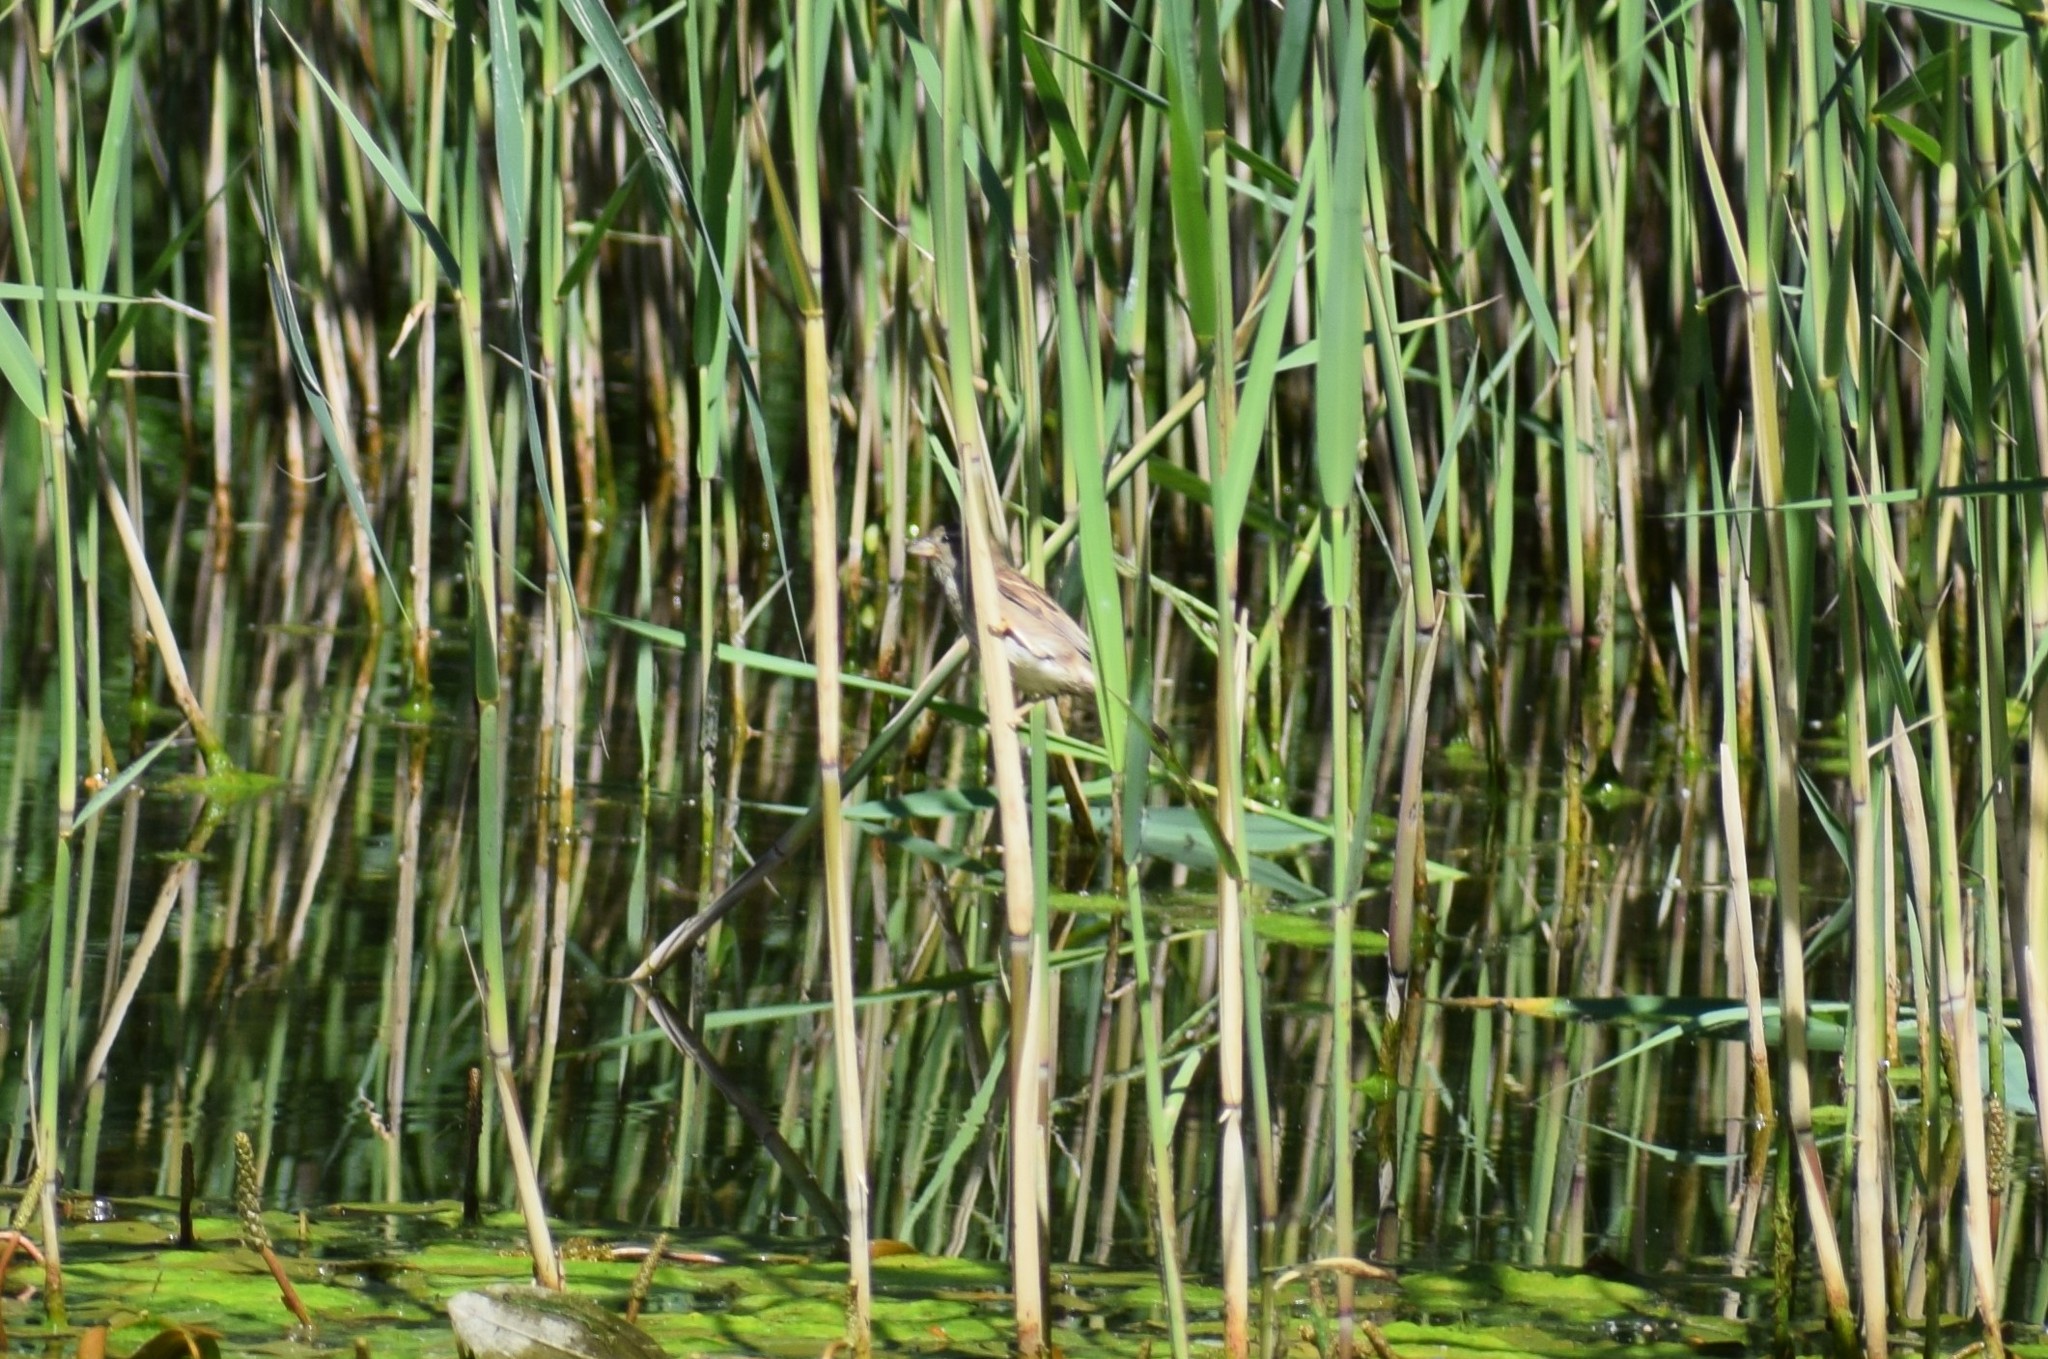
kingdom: Animalia
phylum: Chordata
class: Aves
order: Passeriformes
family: Passeridae
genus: Passer
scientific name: Passer domesticus
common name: House sparrow
